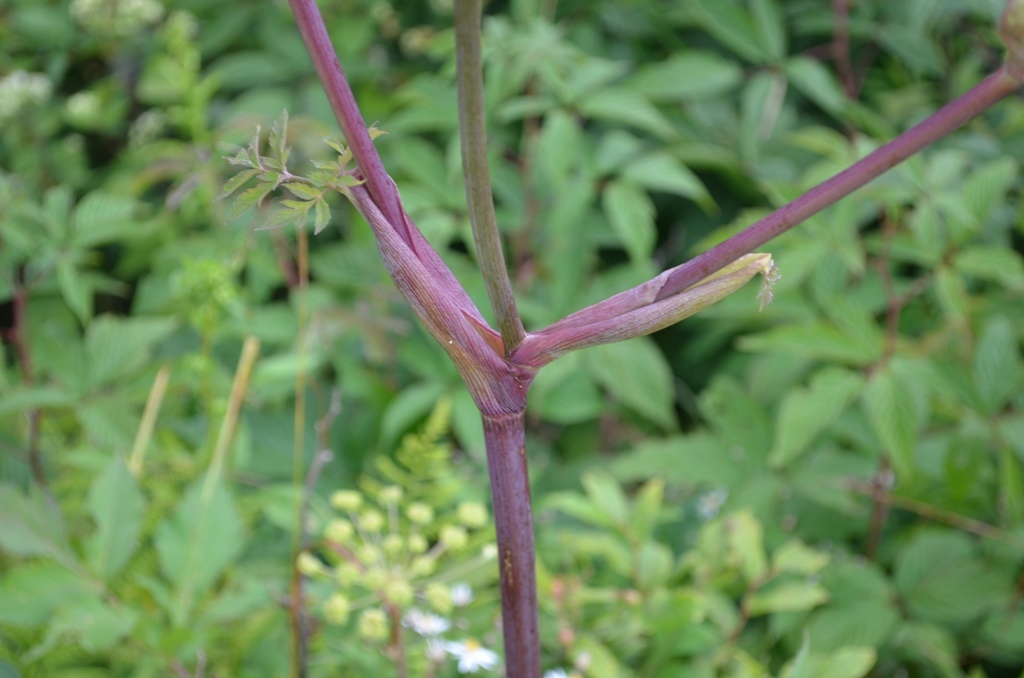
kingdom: Plantae
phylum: Tracheophyta
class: Magnoliopsida
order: Apiales
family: Apiaceae
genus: Angelica
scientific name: Angelica triquinata
